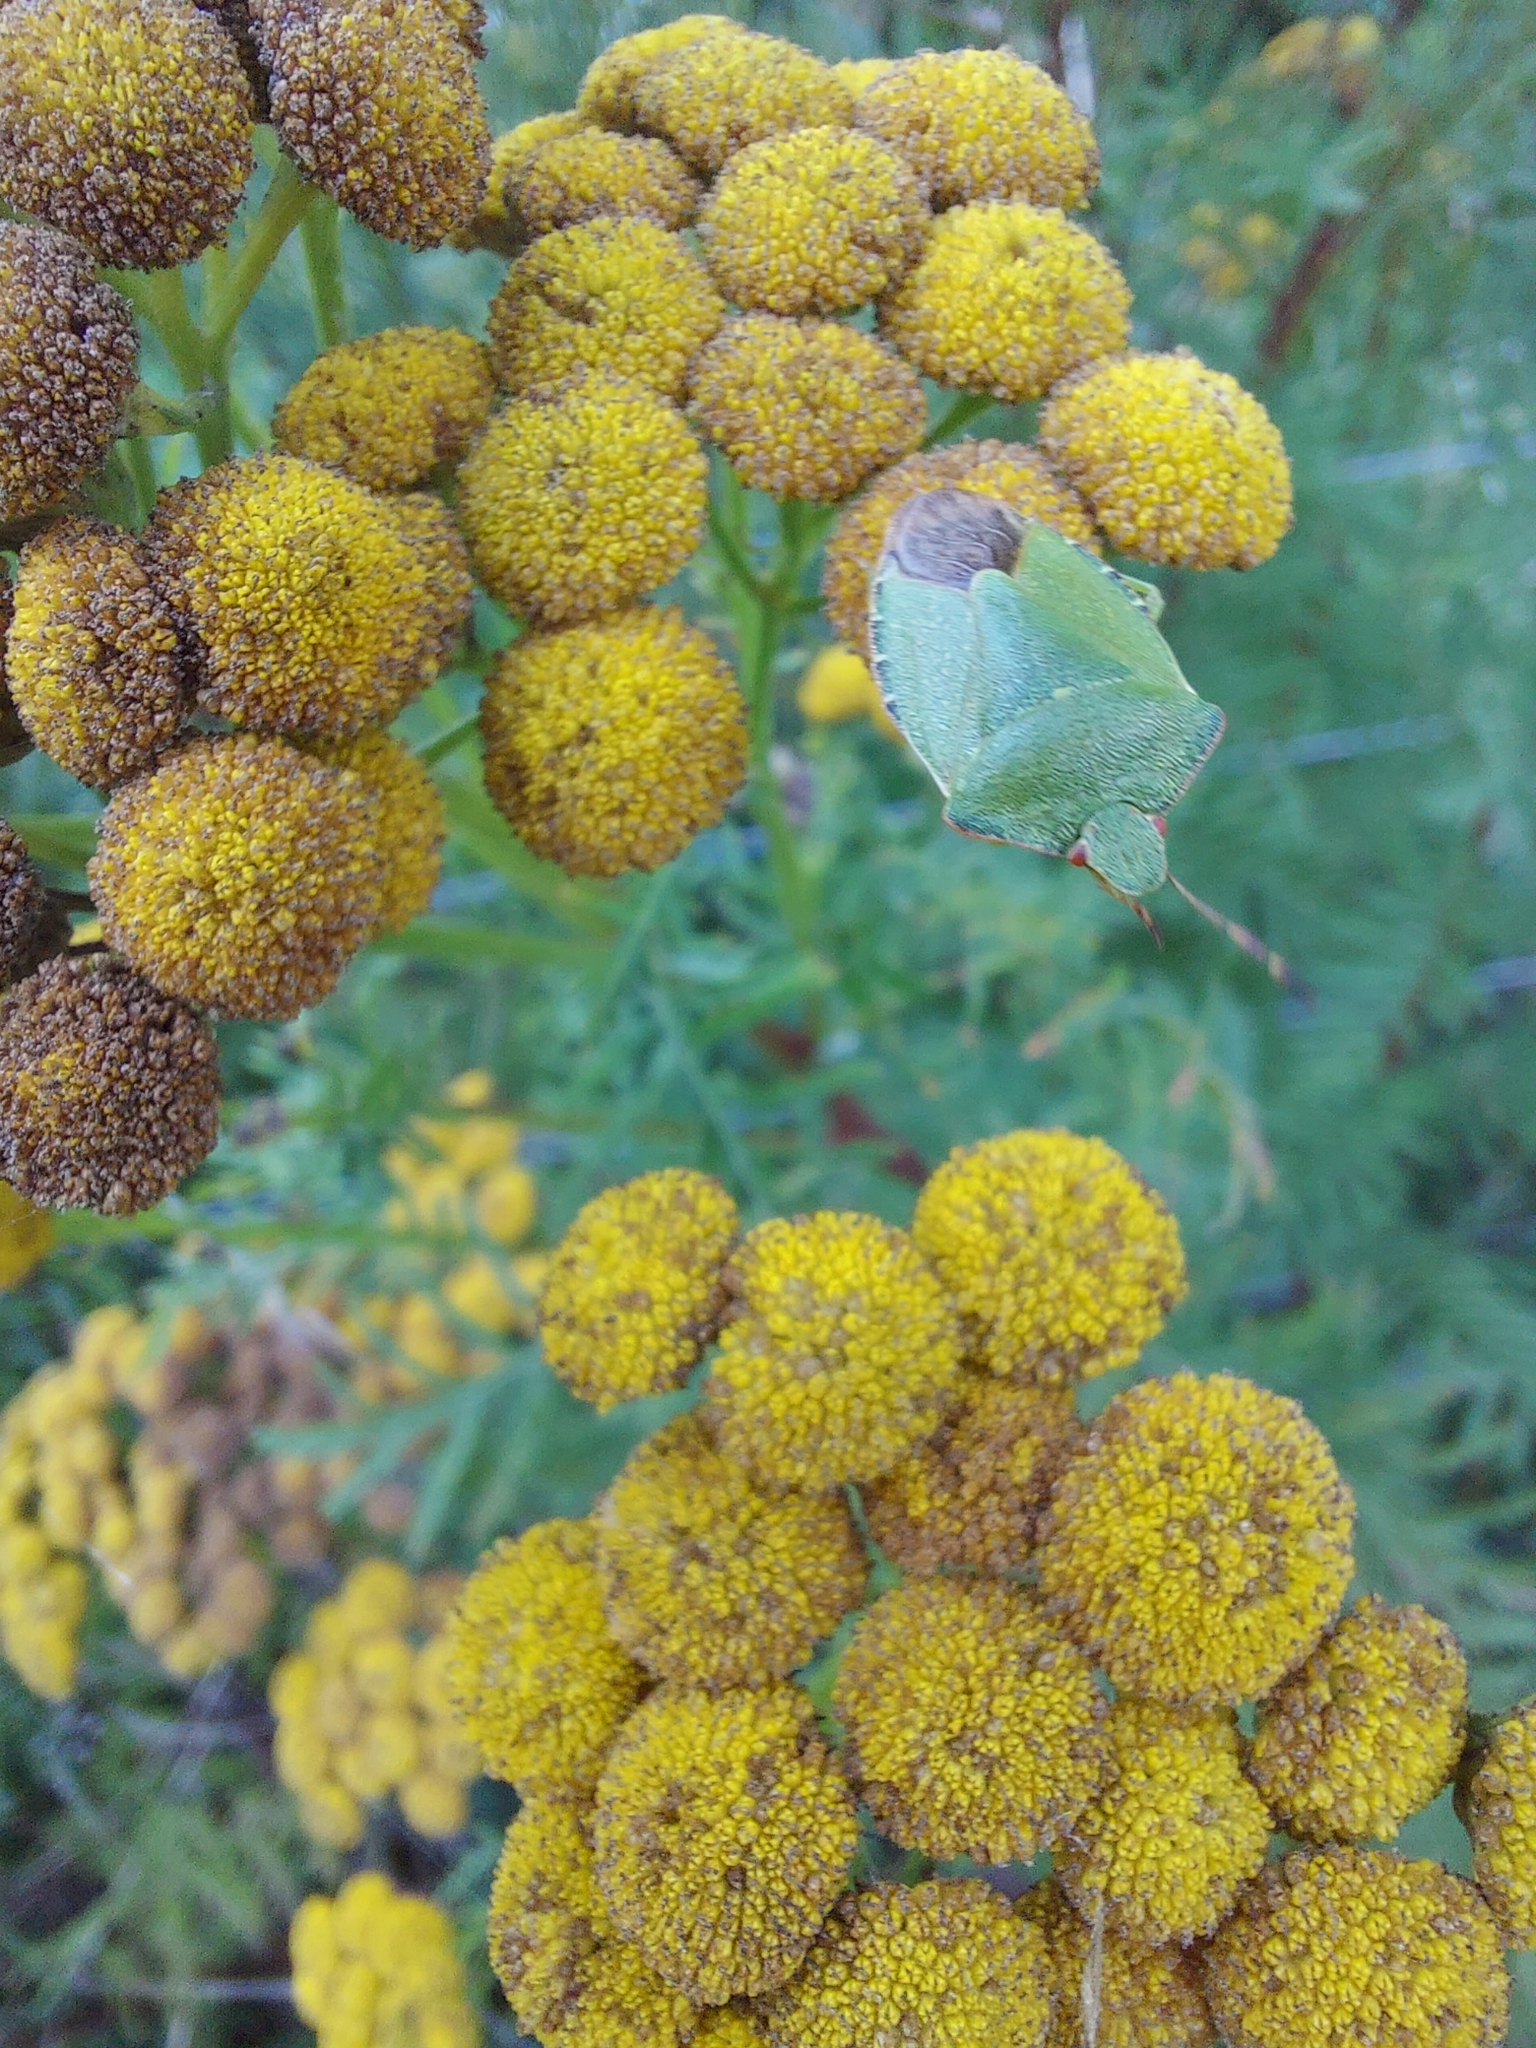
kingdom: Animalia
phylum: Arthropoda
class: Insecta
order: Hemiptera
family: Pentatomidae
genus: Palomena
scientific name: Palomena prasina
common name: Green shieldbug
